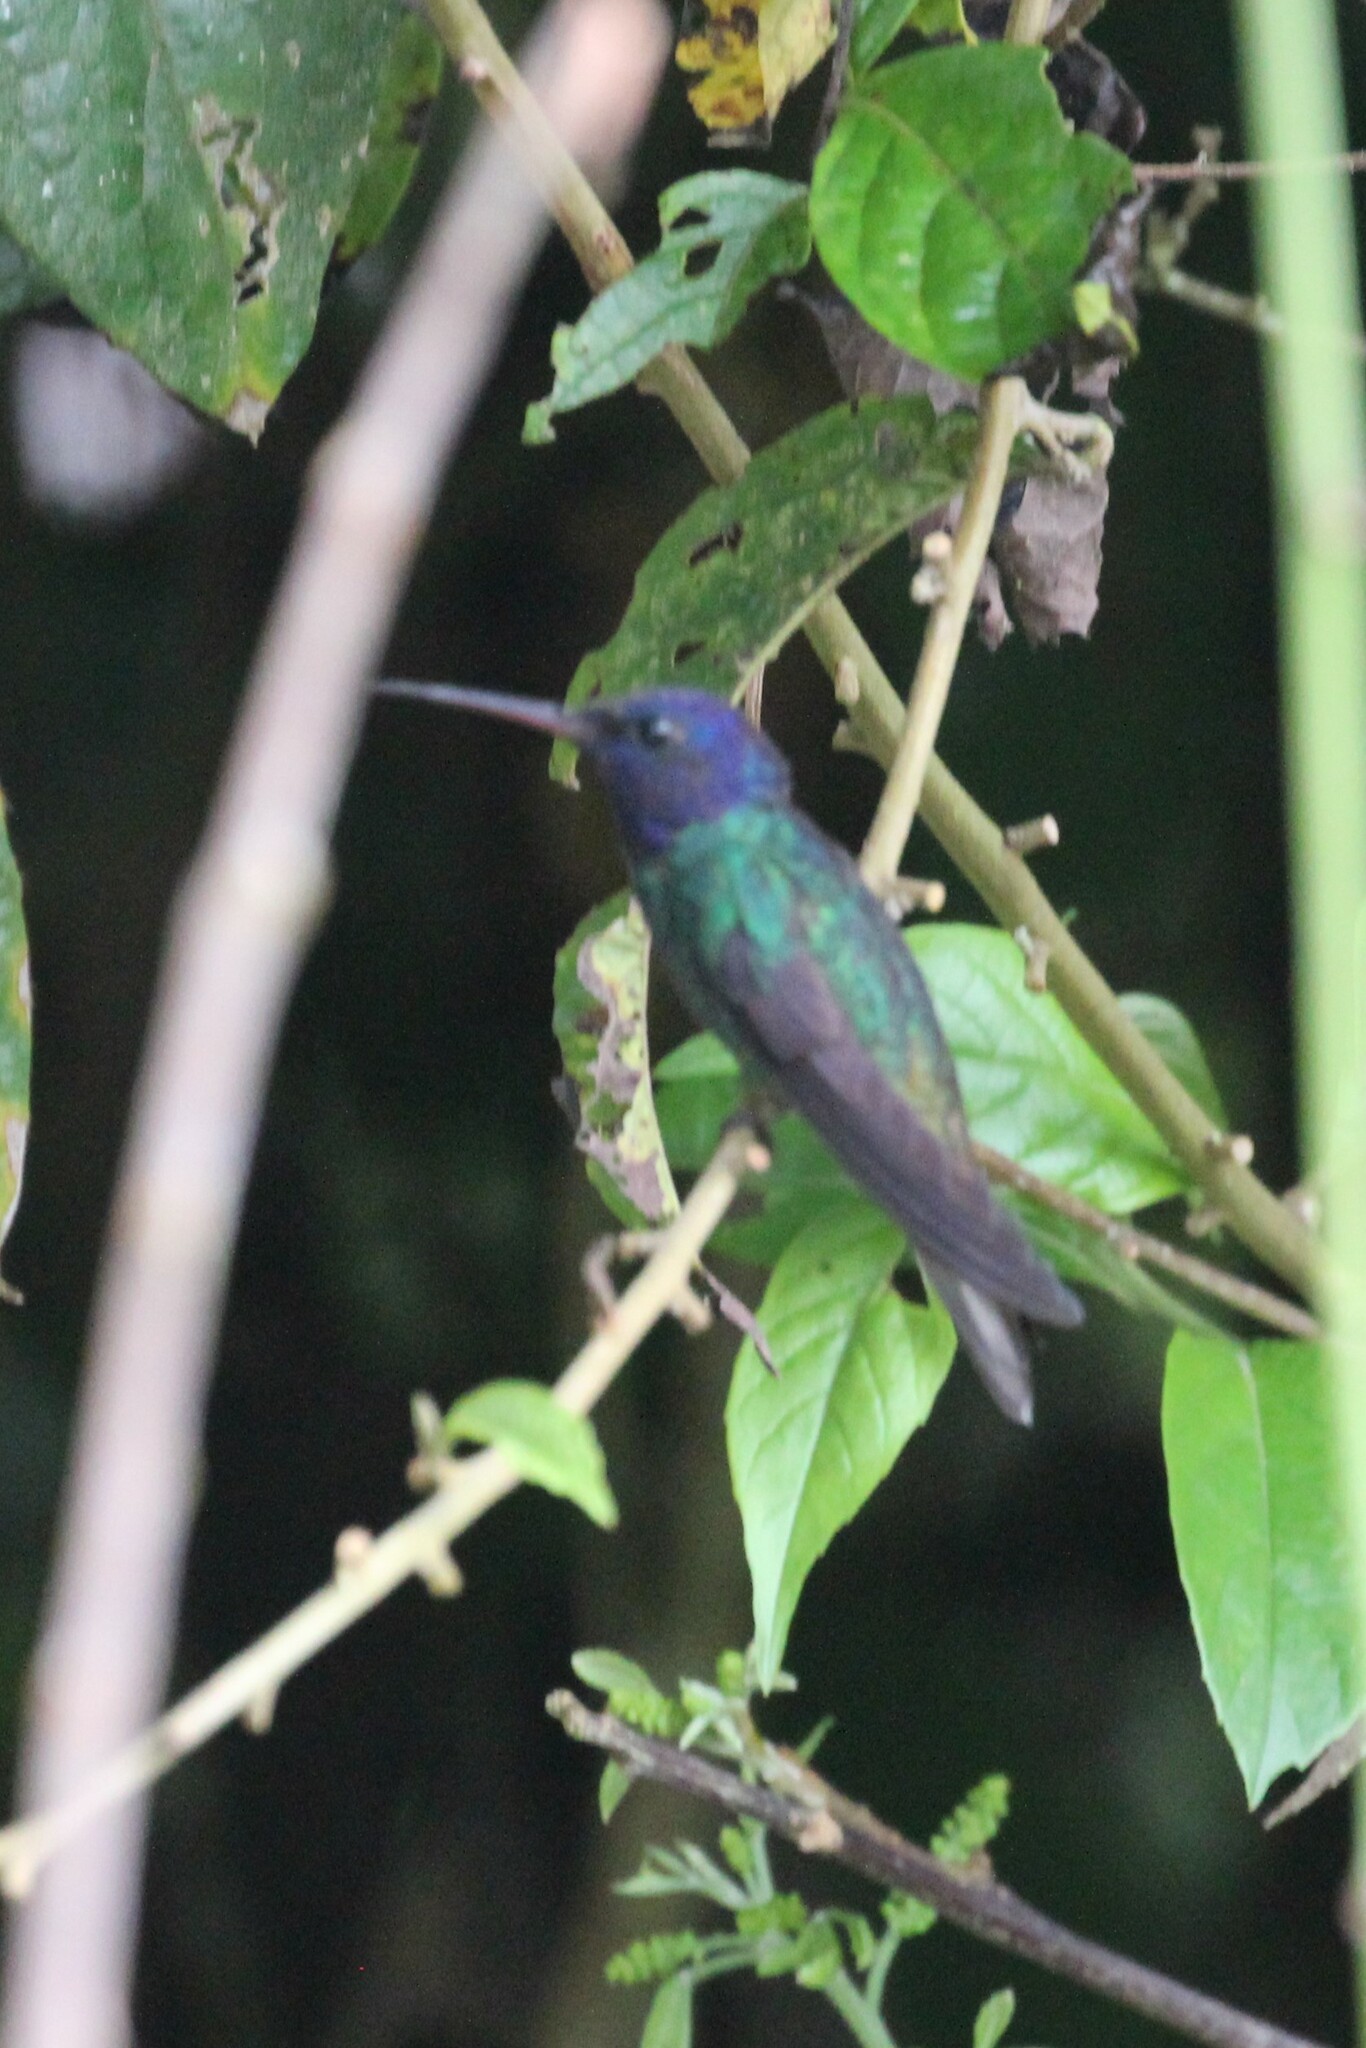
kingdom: Animalia
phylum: Chordata
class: Aves
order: Apodiformes
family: Trochilidae
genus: Chrysuronia
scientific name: Chrysuronia oenone
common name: Golden-tailed sapphire
